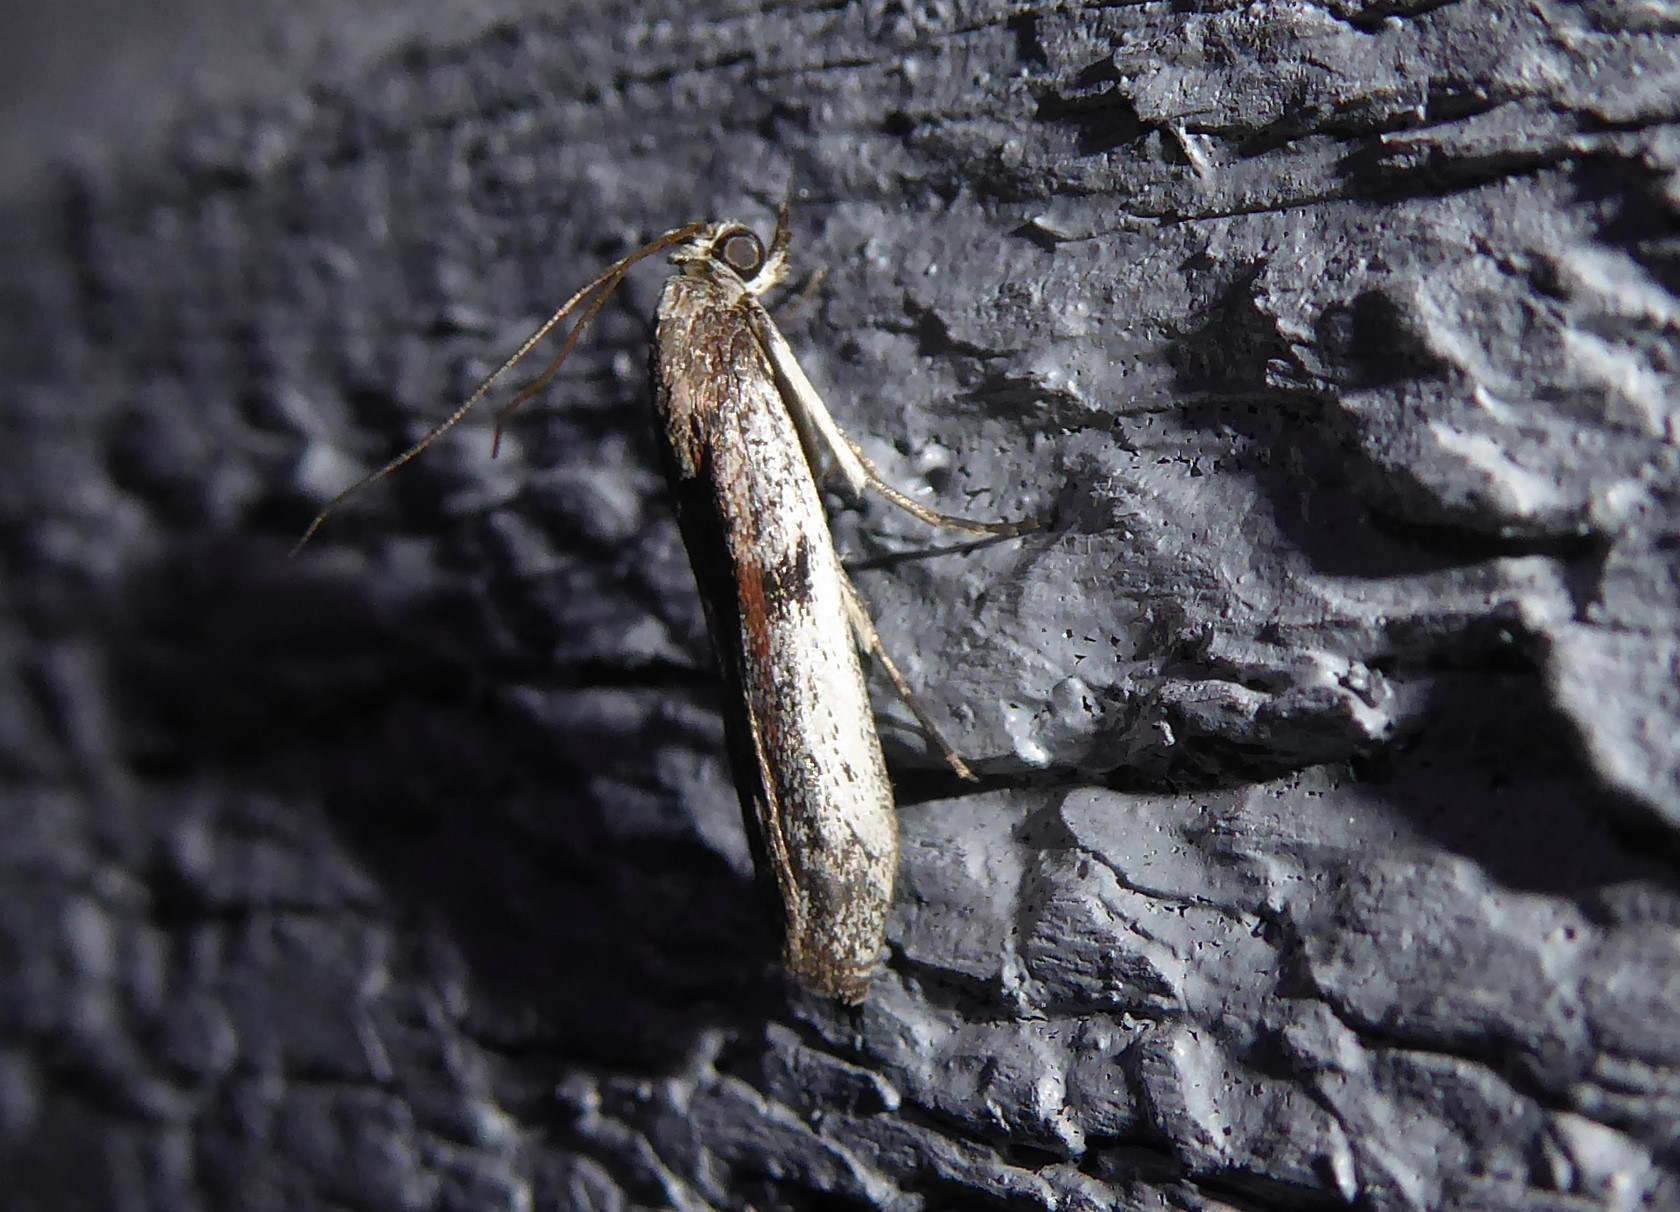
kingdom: Animalia
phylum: Arthropoda
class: Insecta
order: Lepidoptera
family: Pyralidae
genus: Patagoniodes
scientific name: Patagoniodes farinaria
